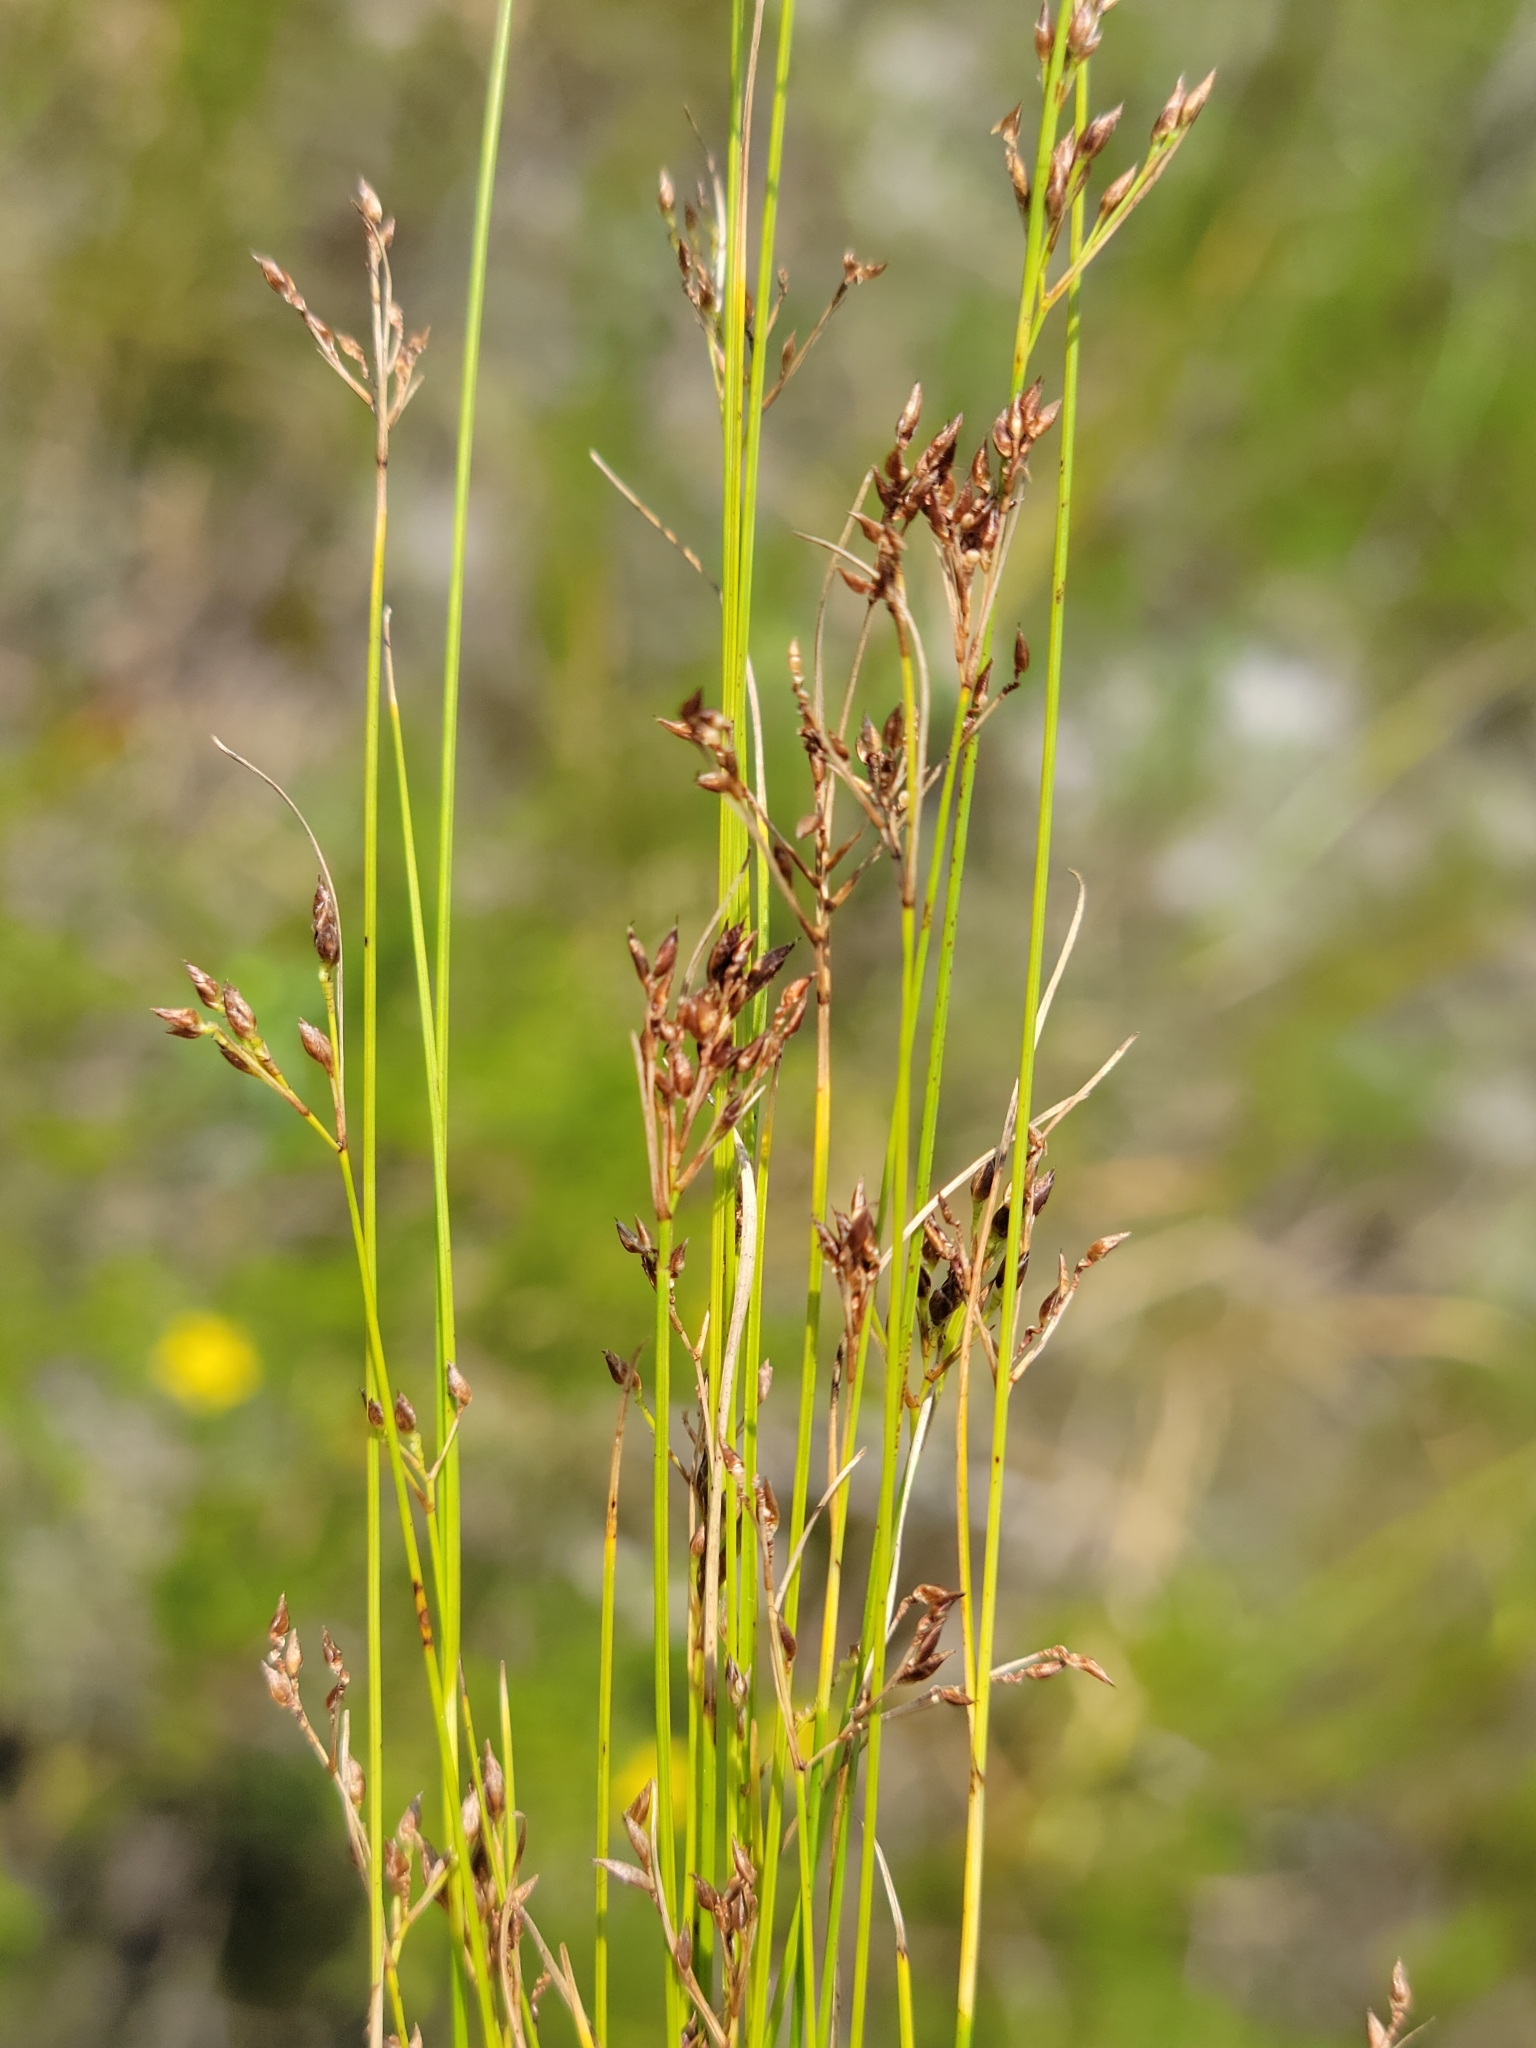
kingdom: Plantae
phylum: Tracheophyta
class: Liliopsida
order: Poales
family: Cyperaceae
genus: Rhynchospora
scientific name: Rhynchospora divergens
